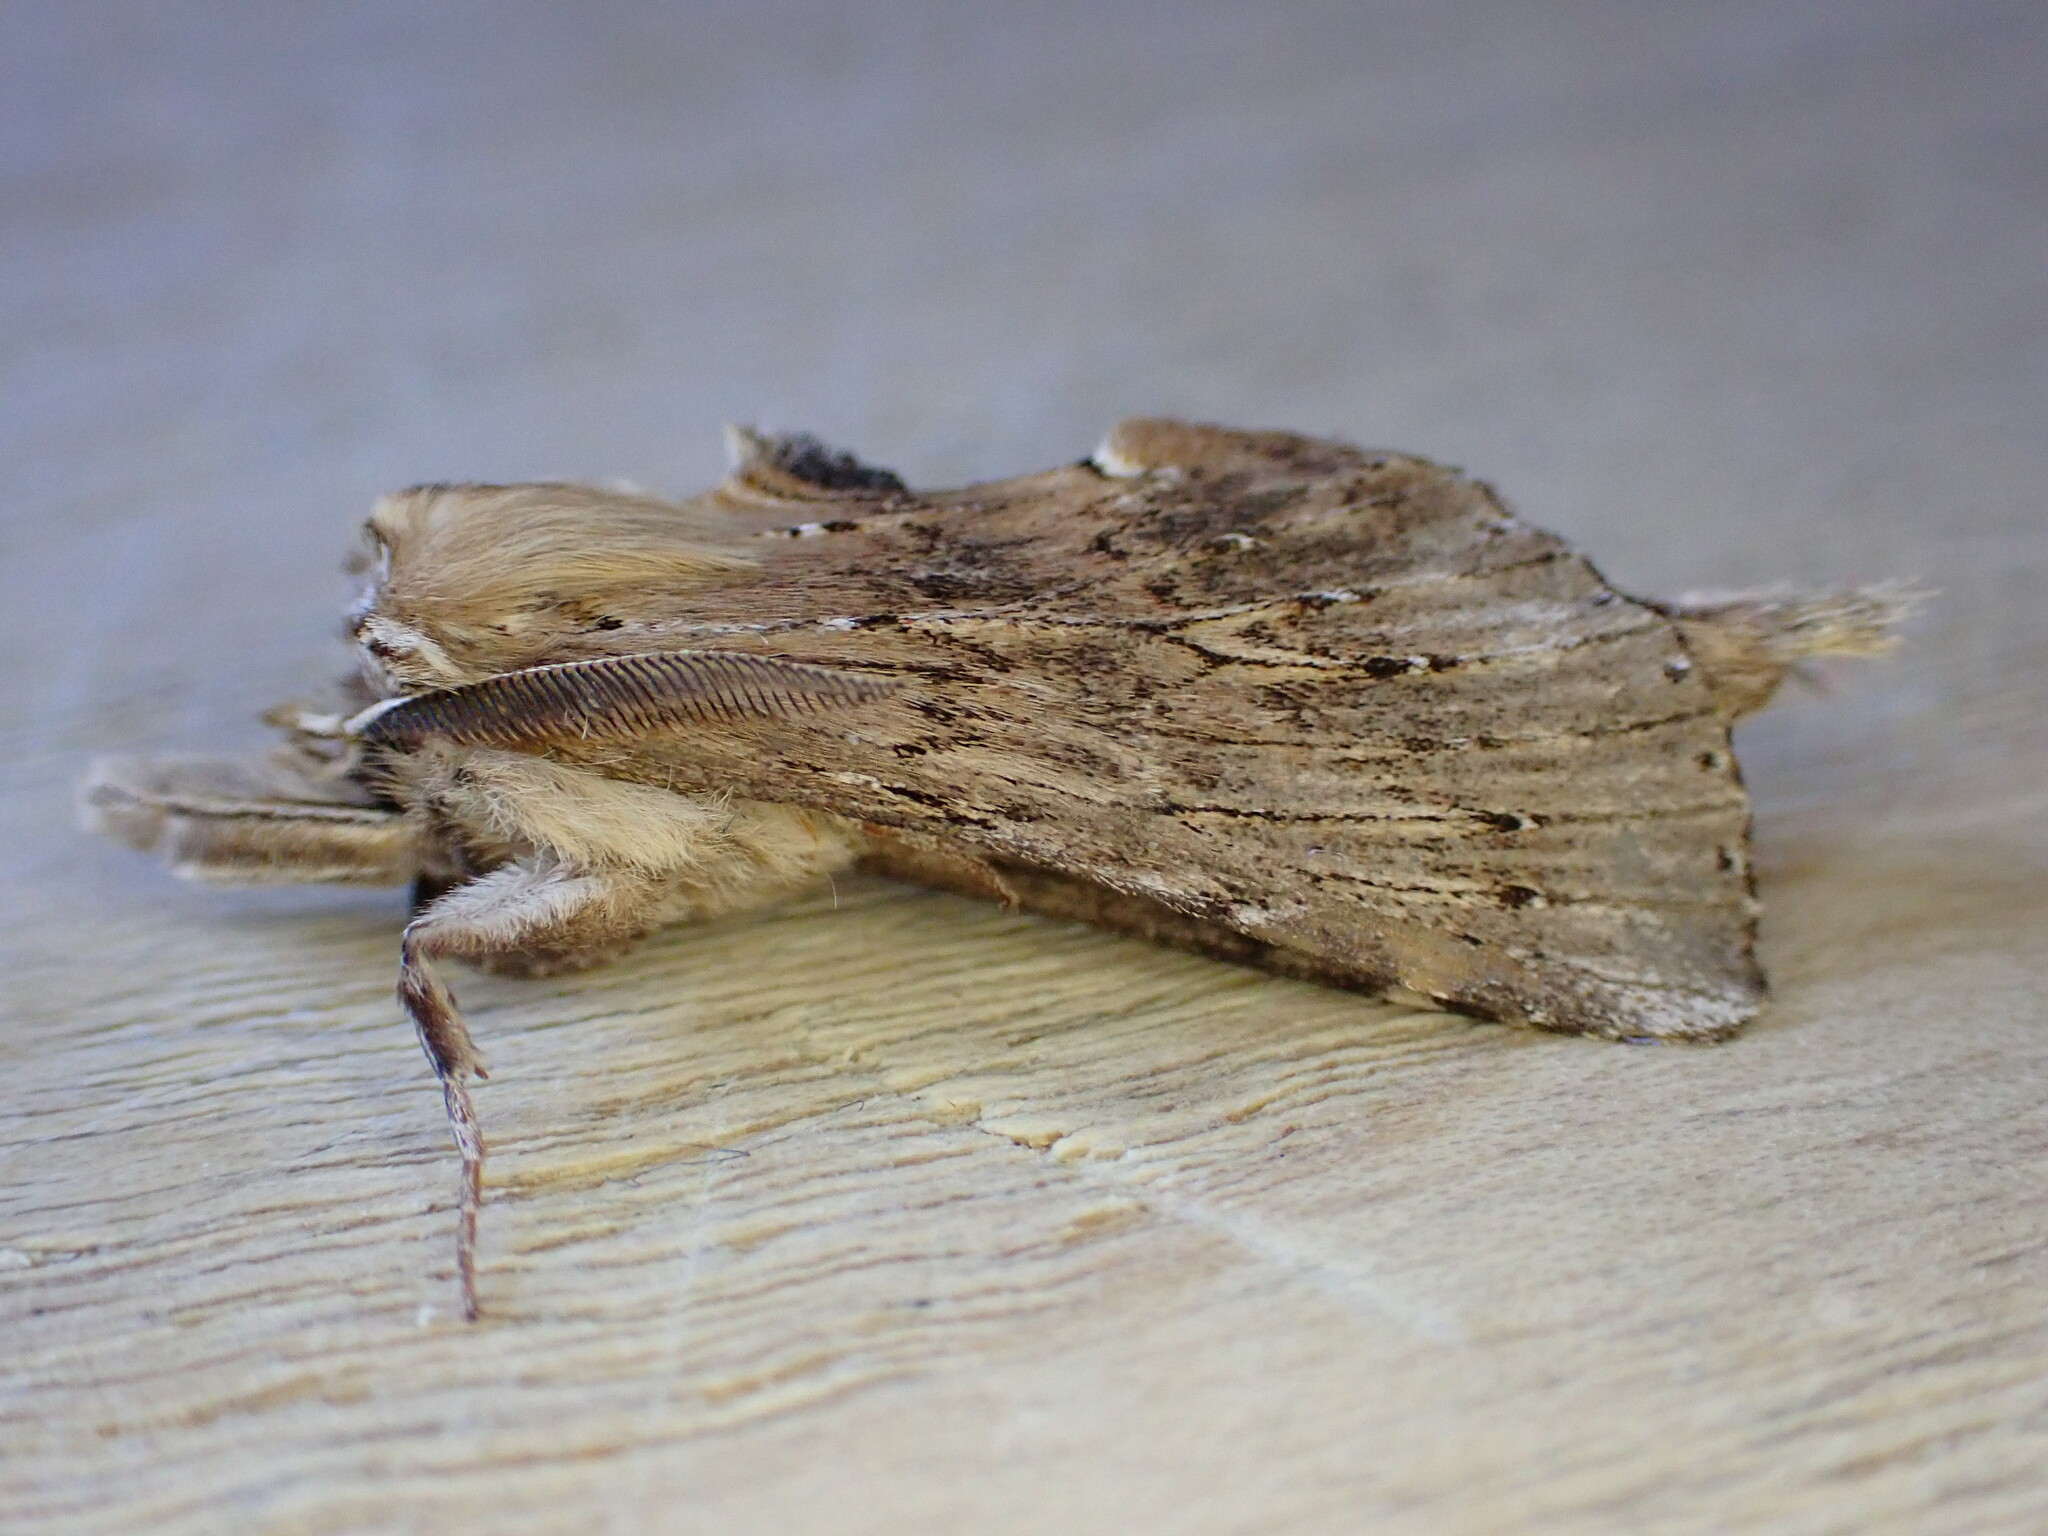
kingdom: Animalia
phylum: Arthropoda
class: Insecta
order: Lepidoptera
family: Notodontidae
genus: Pterostoma
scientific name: Pterostoma palpina
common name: Pale prominent
